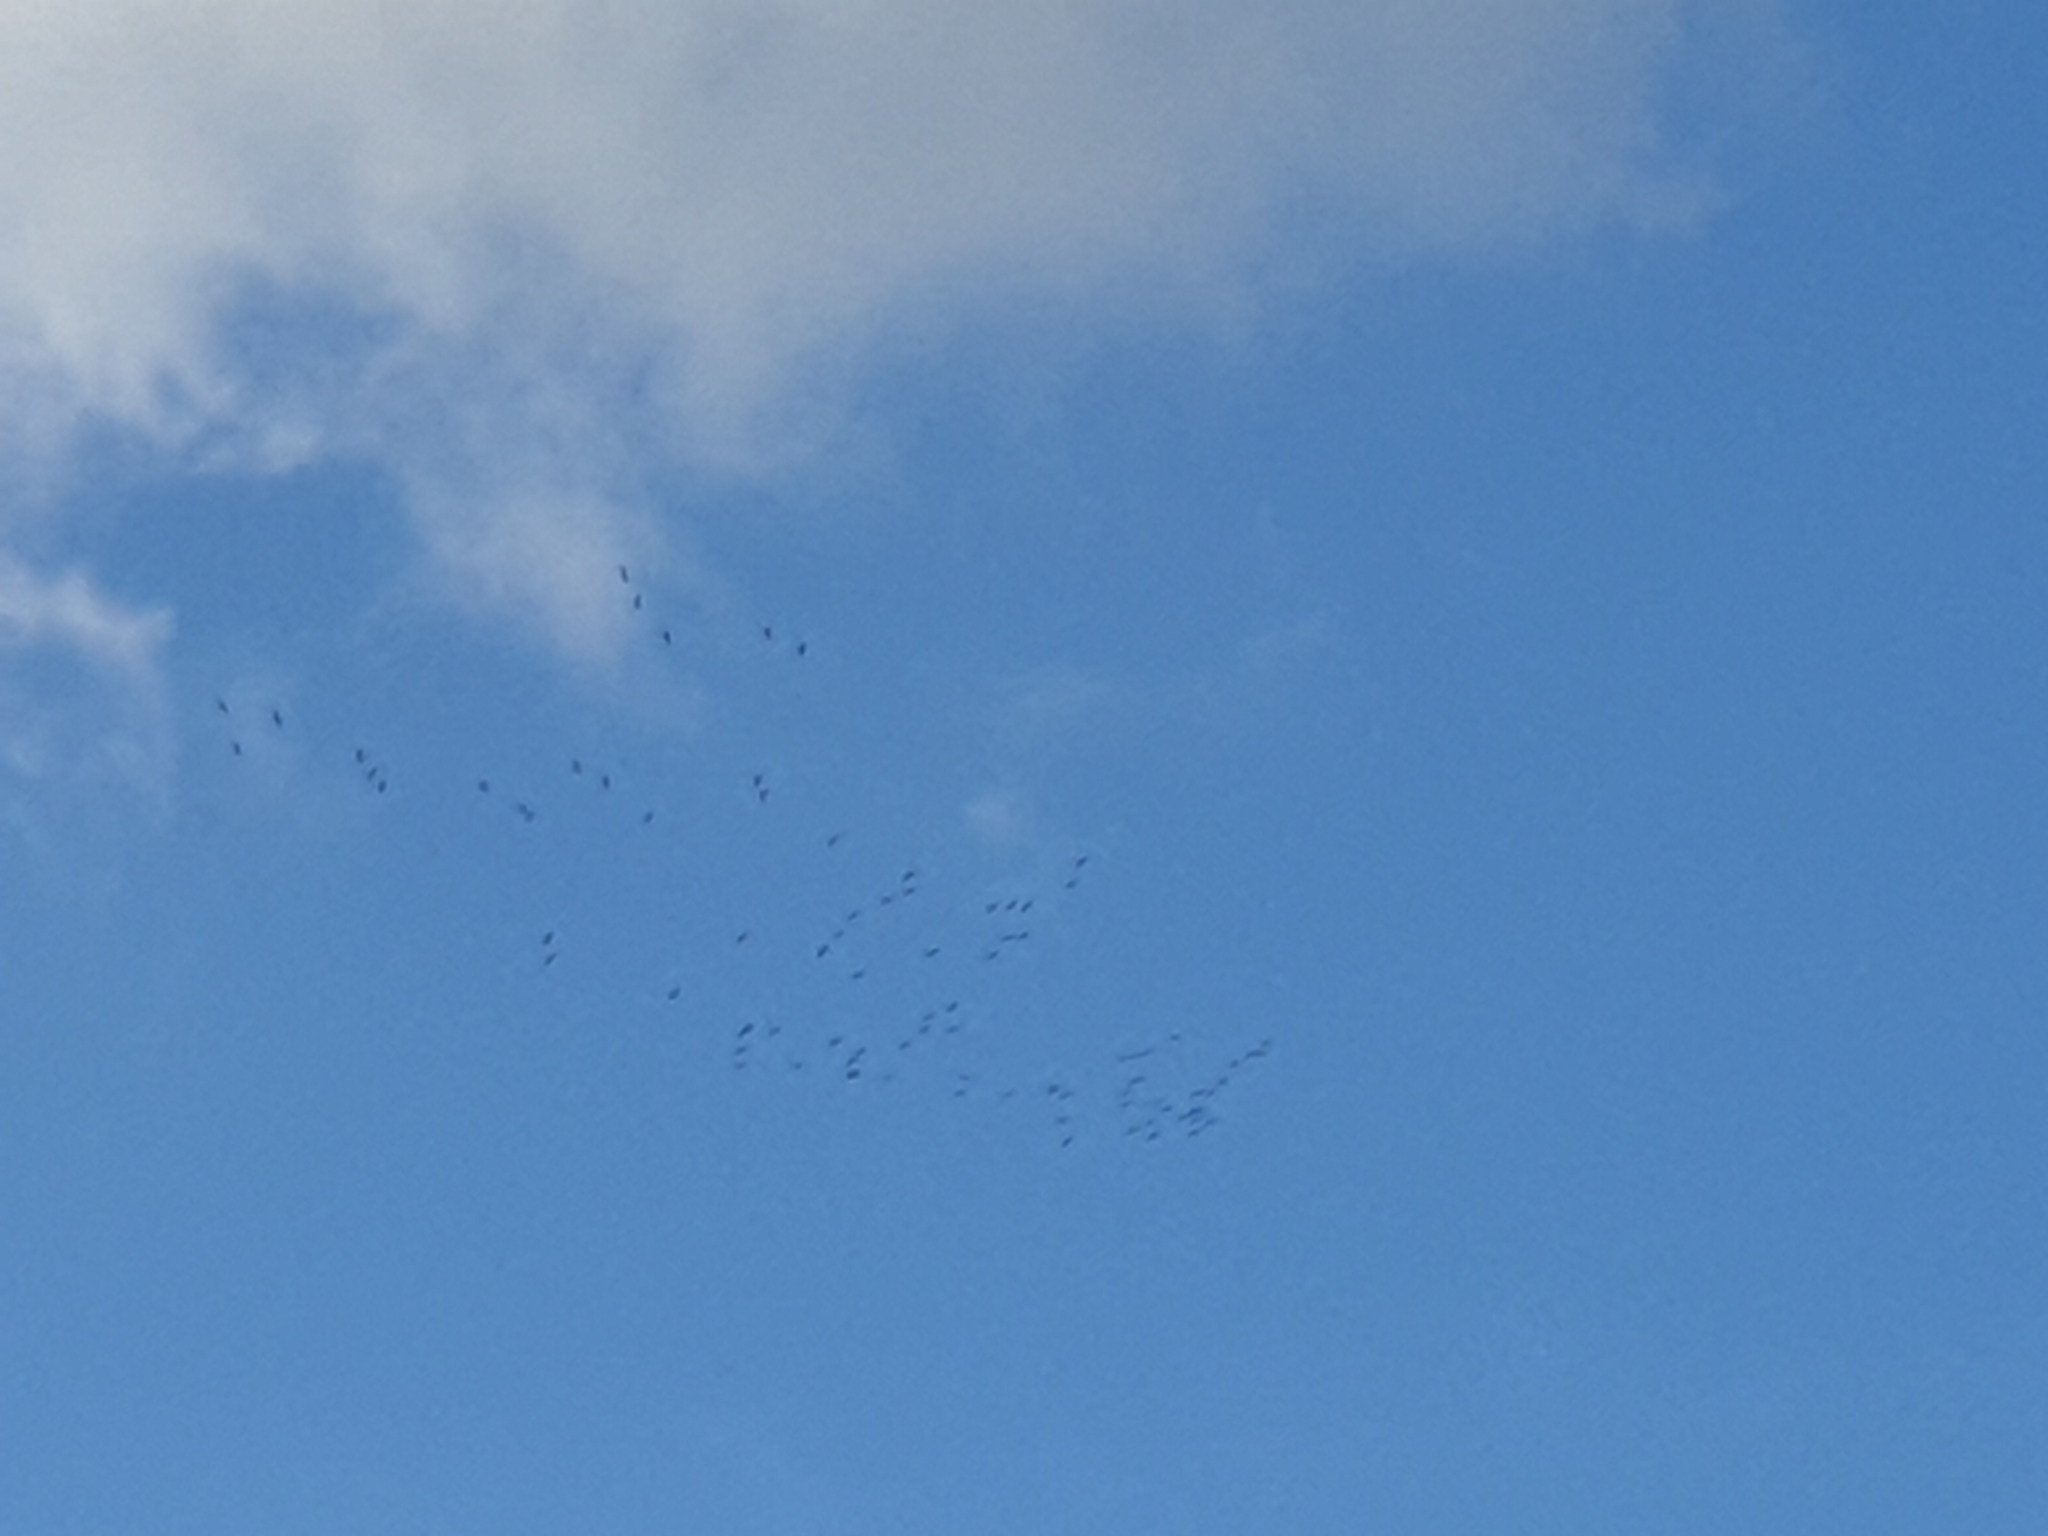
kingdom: Animalia
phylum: Chordata
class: Aves
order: Gruiformes
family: Gruidae
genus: Grus
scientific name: Grus grus
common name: Common crane
